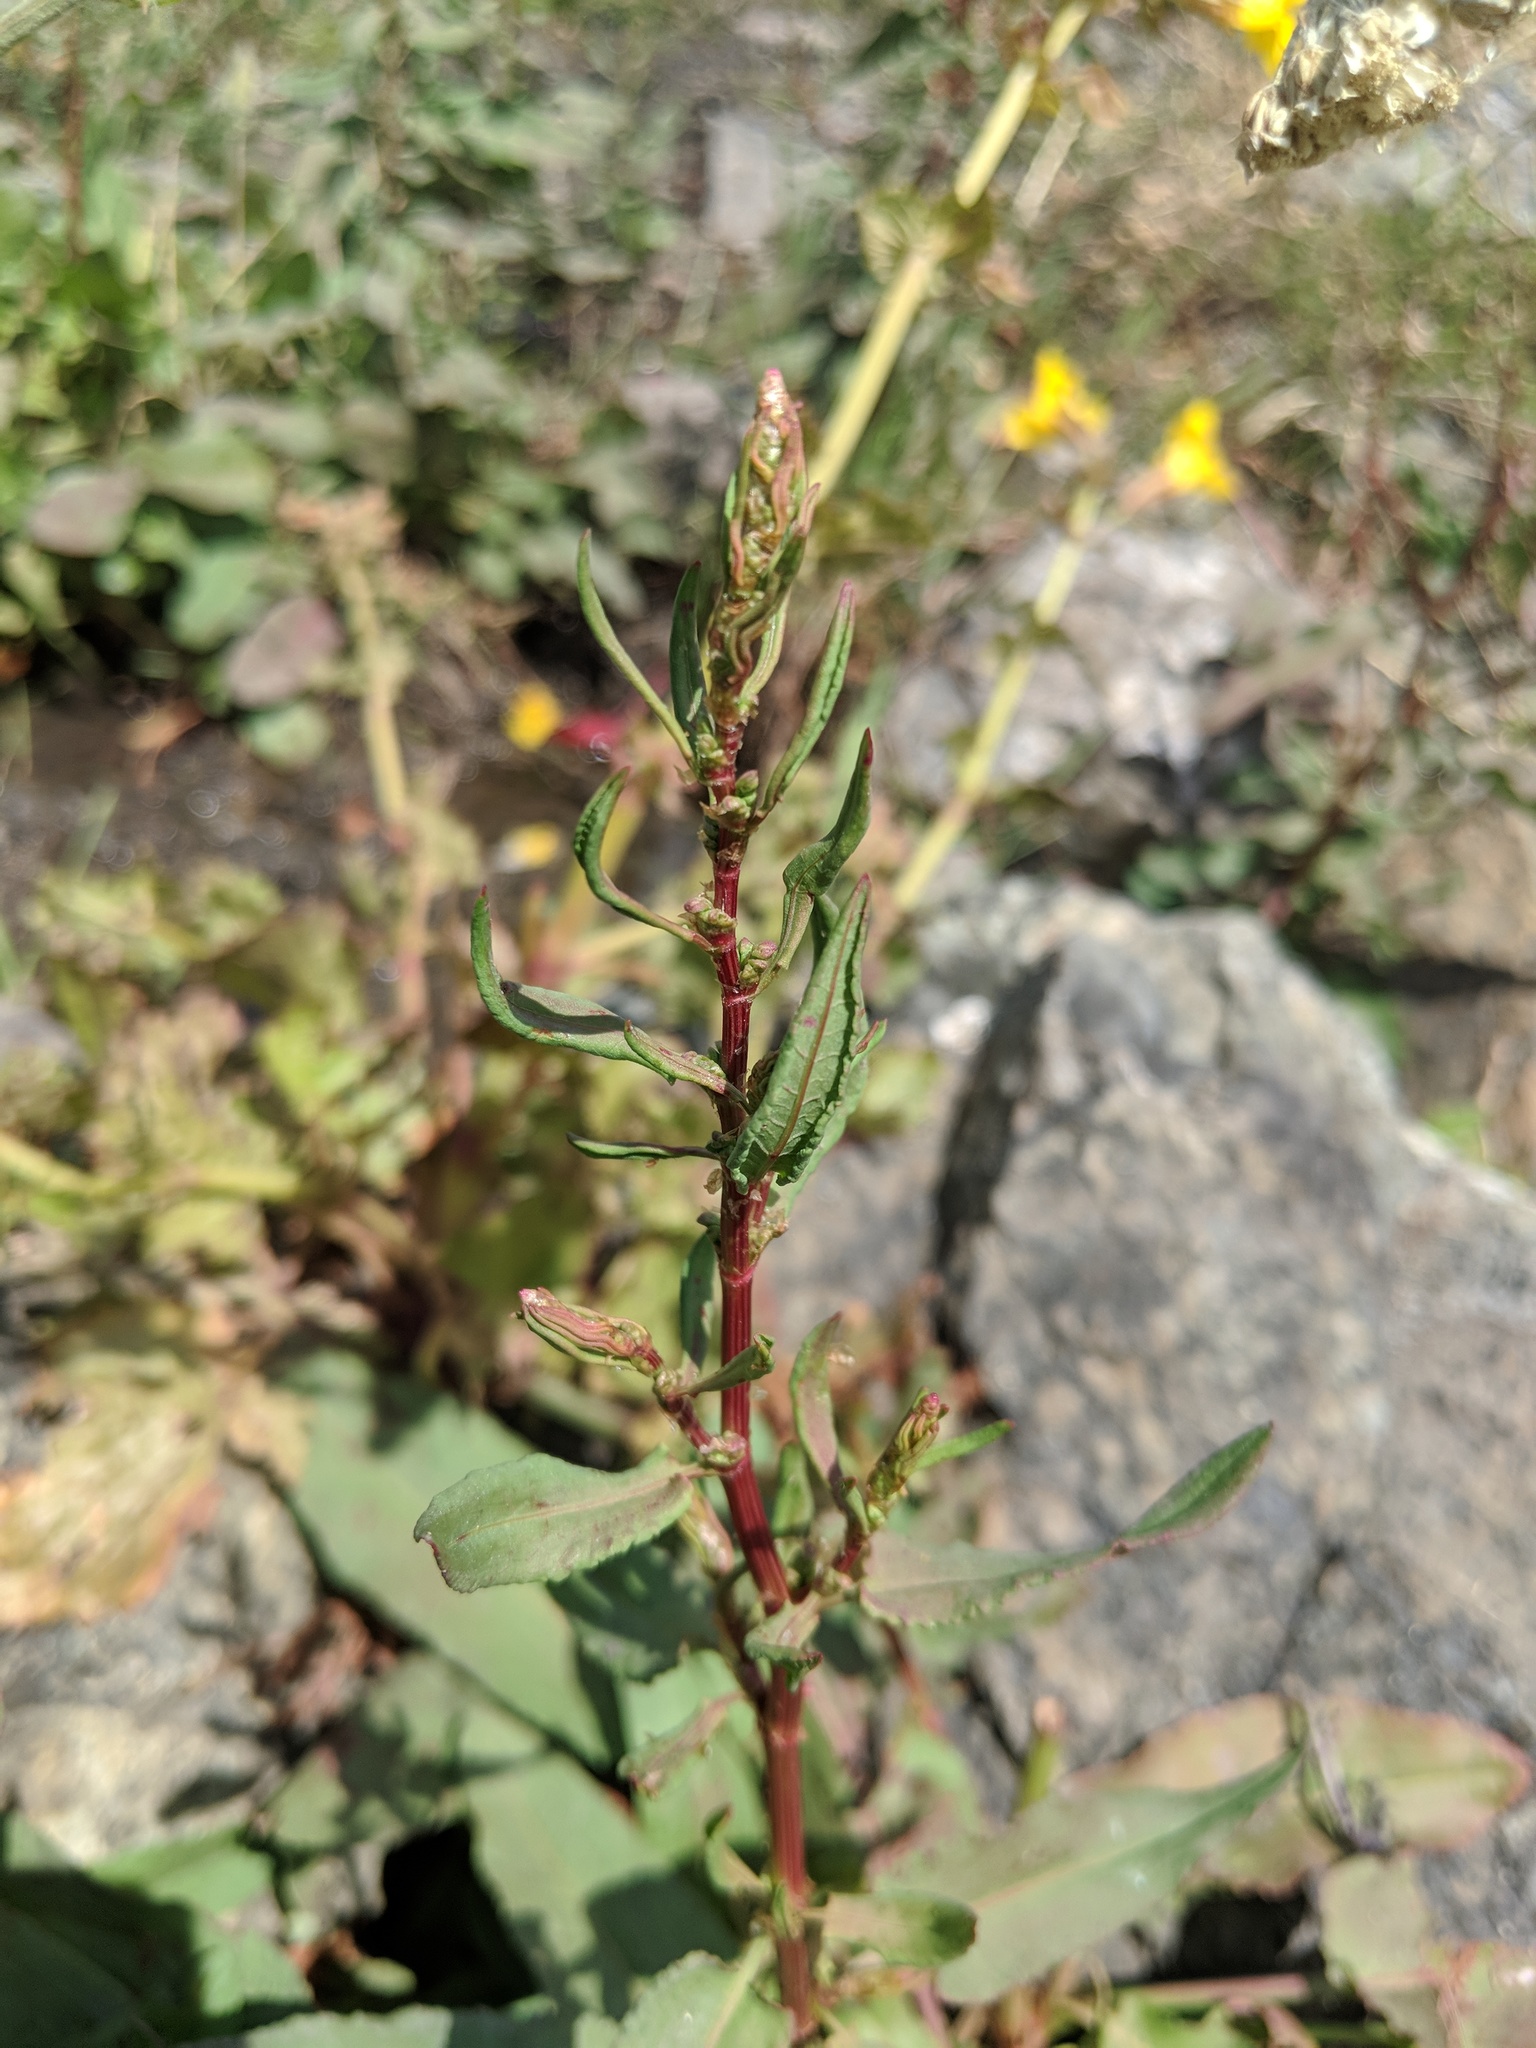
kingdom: Plantae
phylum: Tracheophyta
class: Magnoliopsida
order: Caryophyllales
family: Polygonaceae
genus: Rumex
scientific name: Rumex crispus
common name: Curled dock
